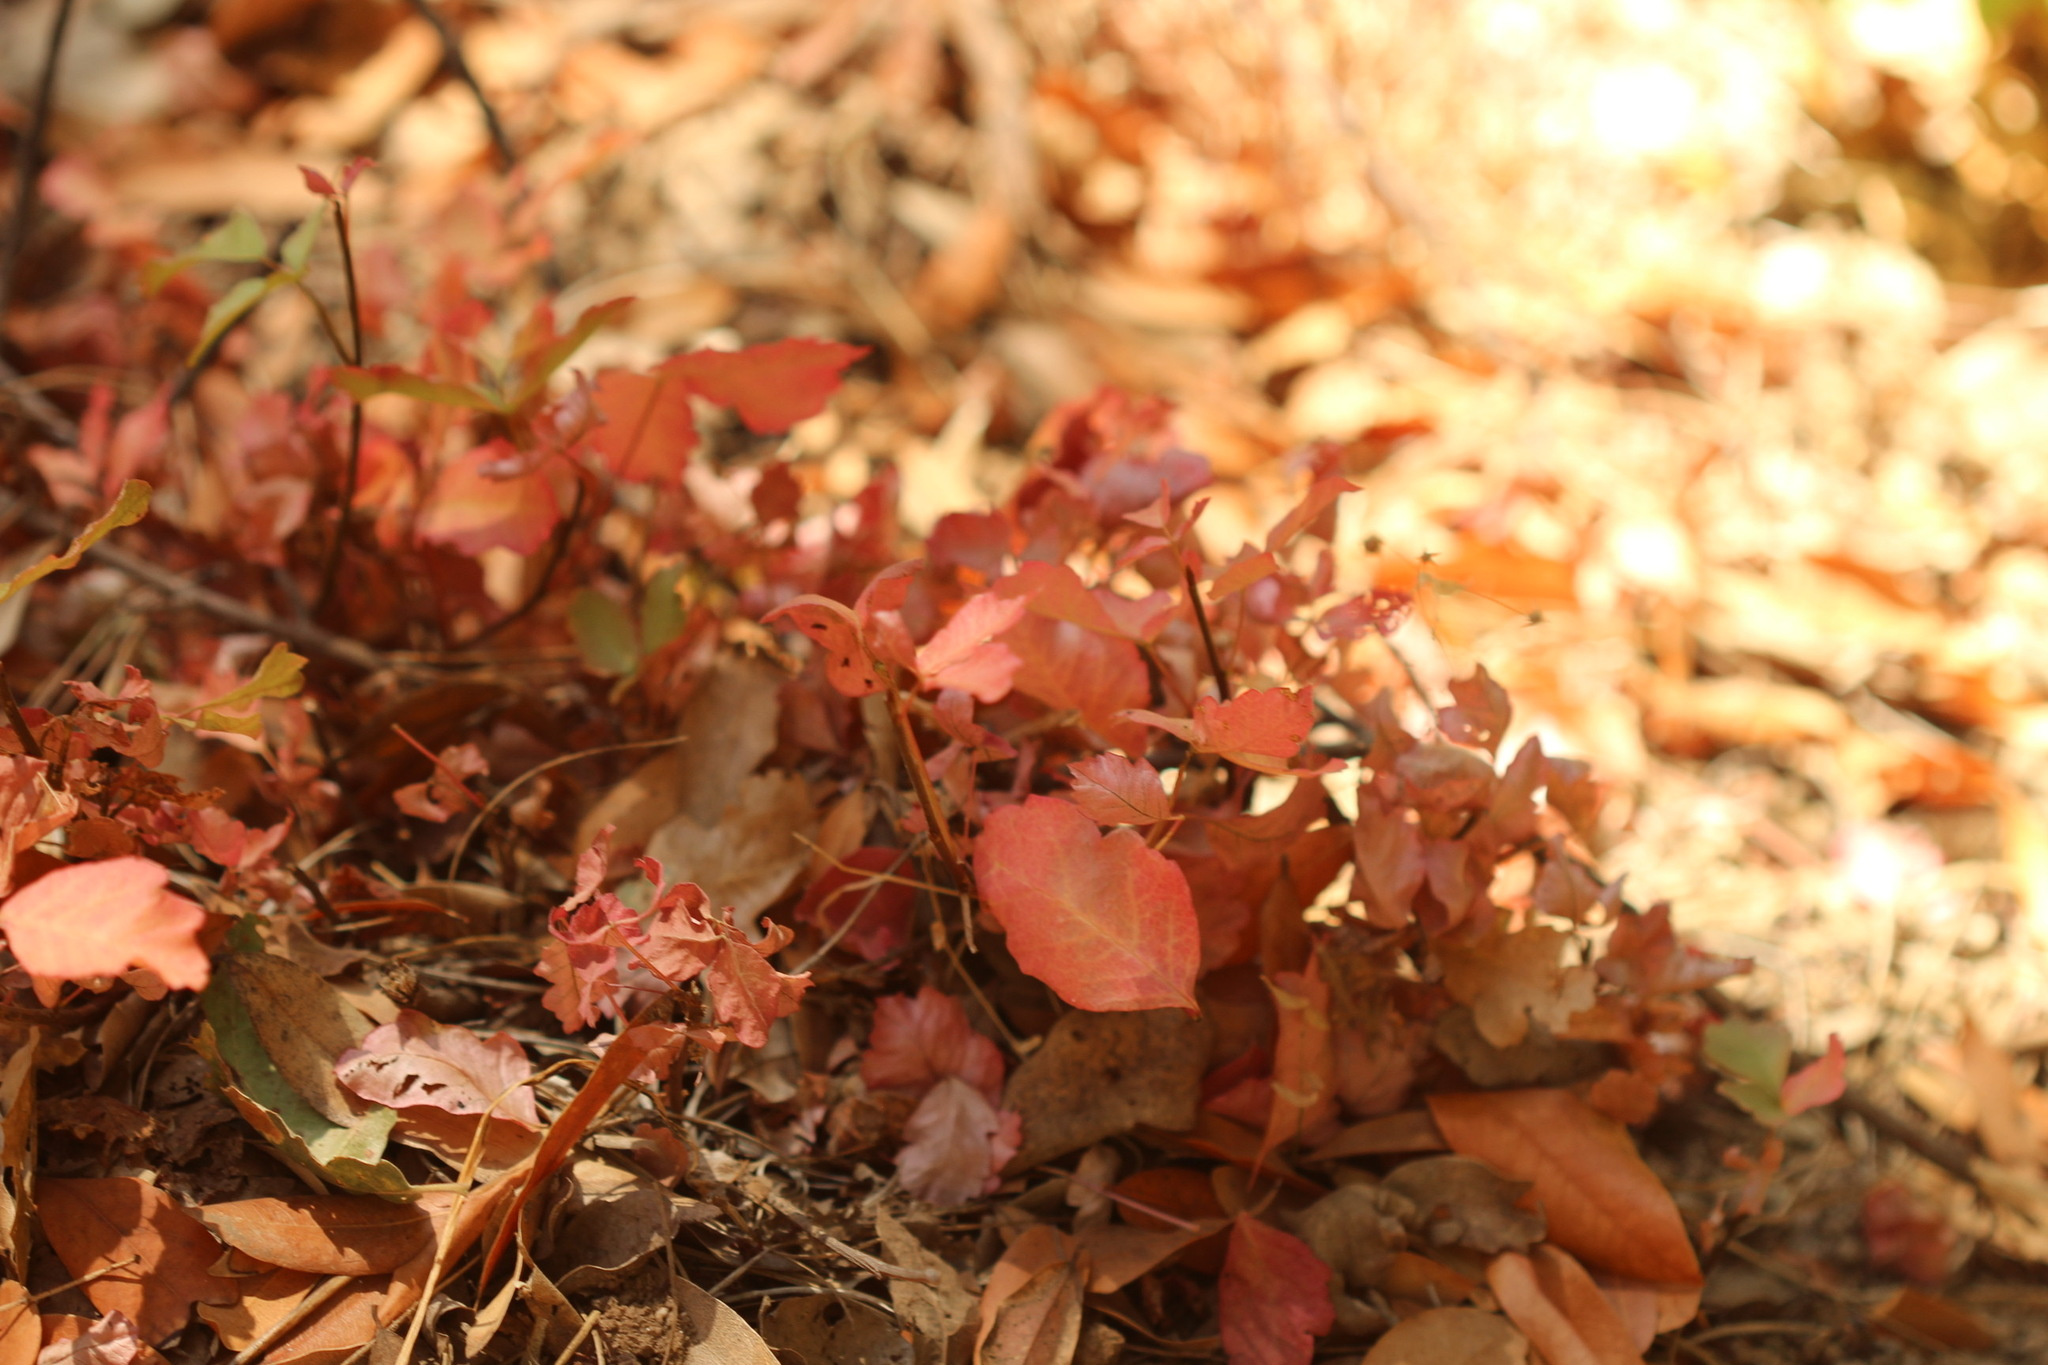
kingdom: Plantae
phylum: Tracheophyta
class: Magnoliopsida
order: Sapindales
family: Anacardiaceae
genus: Toxicodendron
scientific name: Toxicodendron diversilobum
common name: Pacific poison-oak
